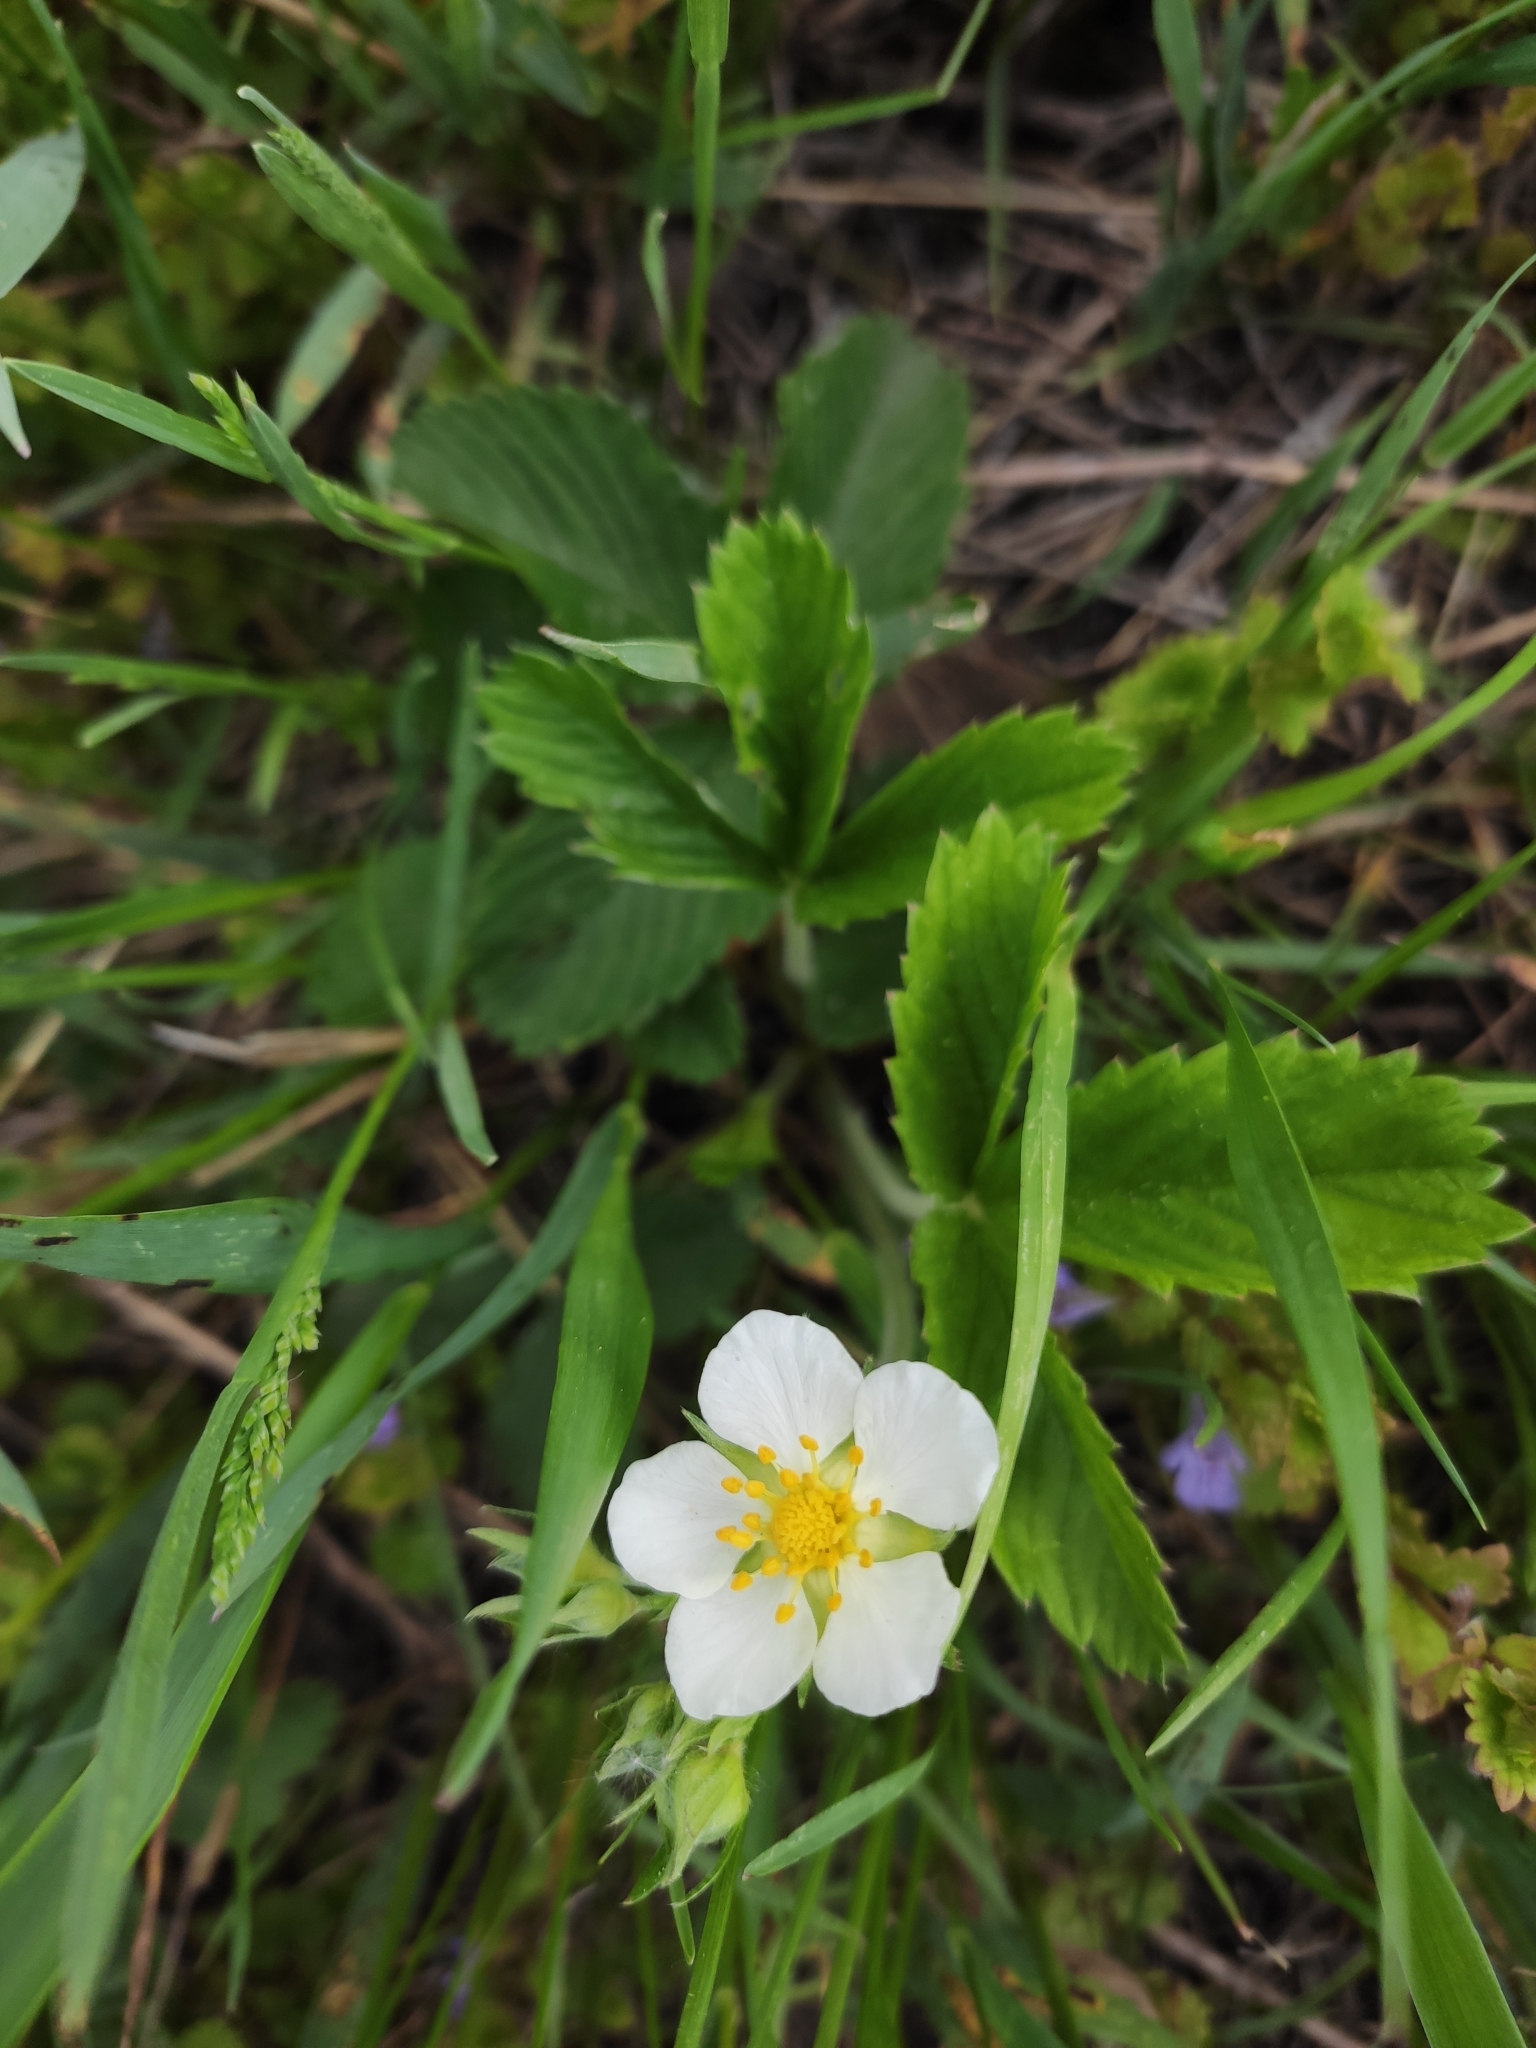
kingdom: Plantae
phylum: Tracheophyta
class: Magnoliopsida
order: Rosales
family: Rosaceae
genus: Fragaria
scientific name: Fragaria viridis
